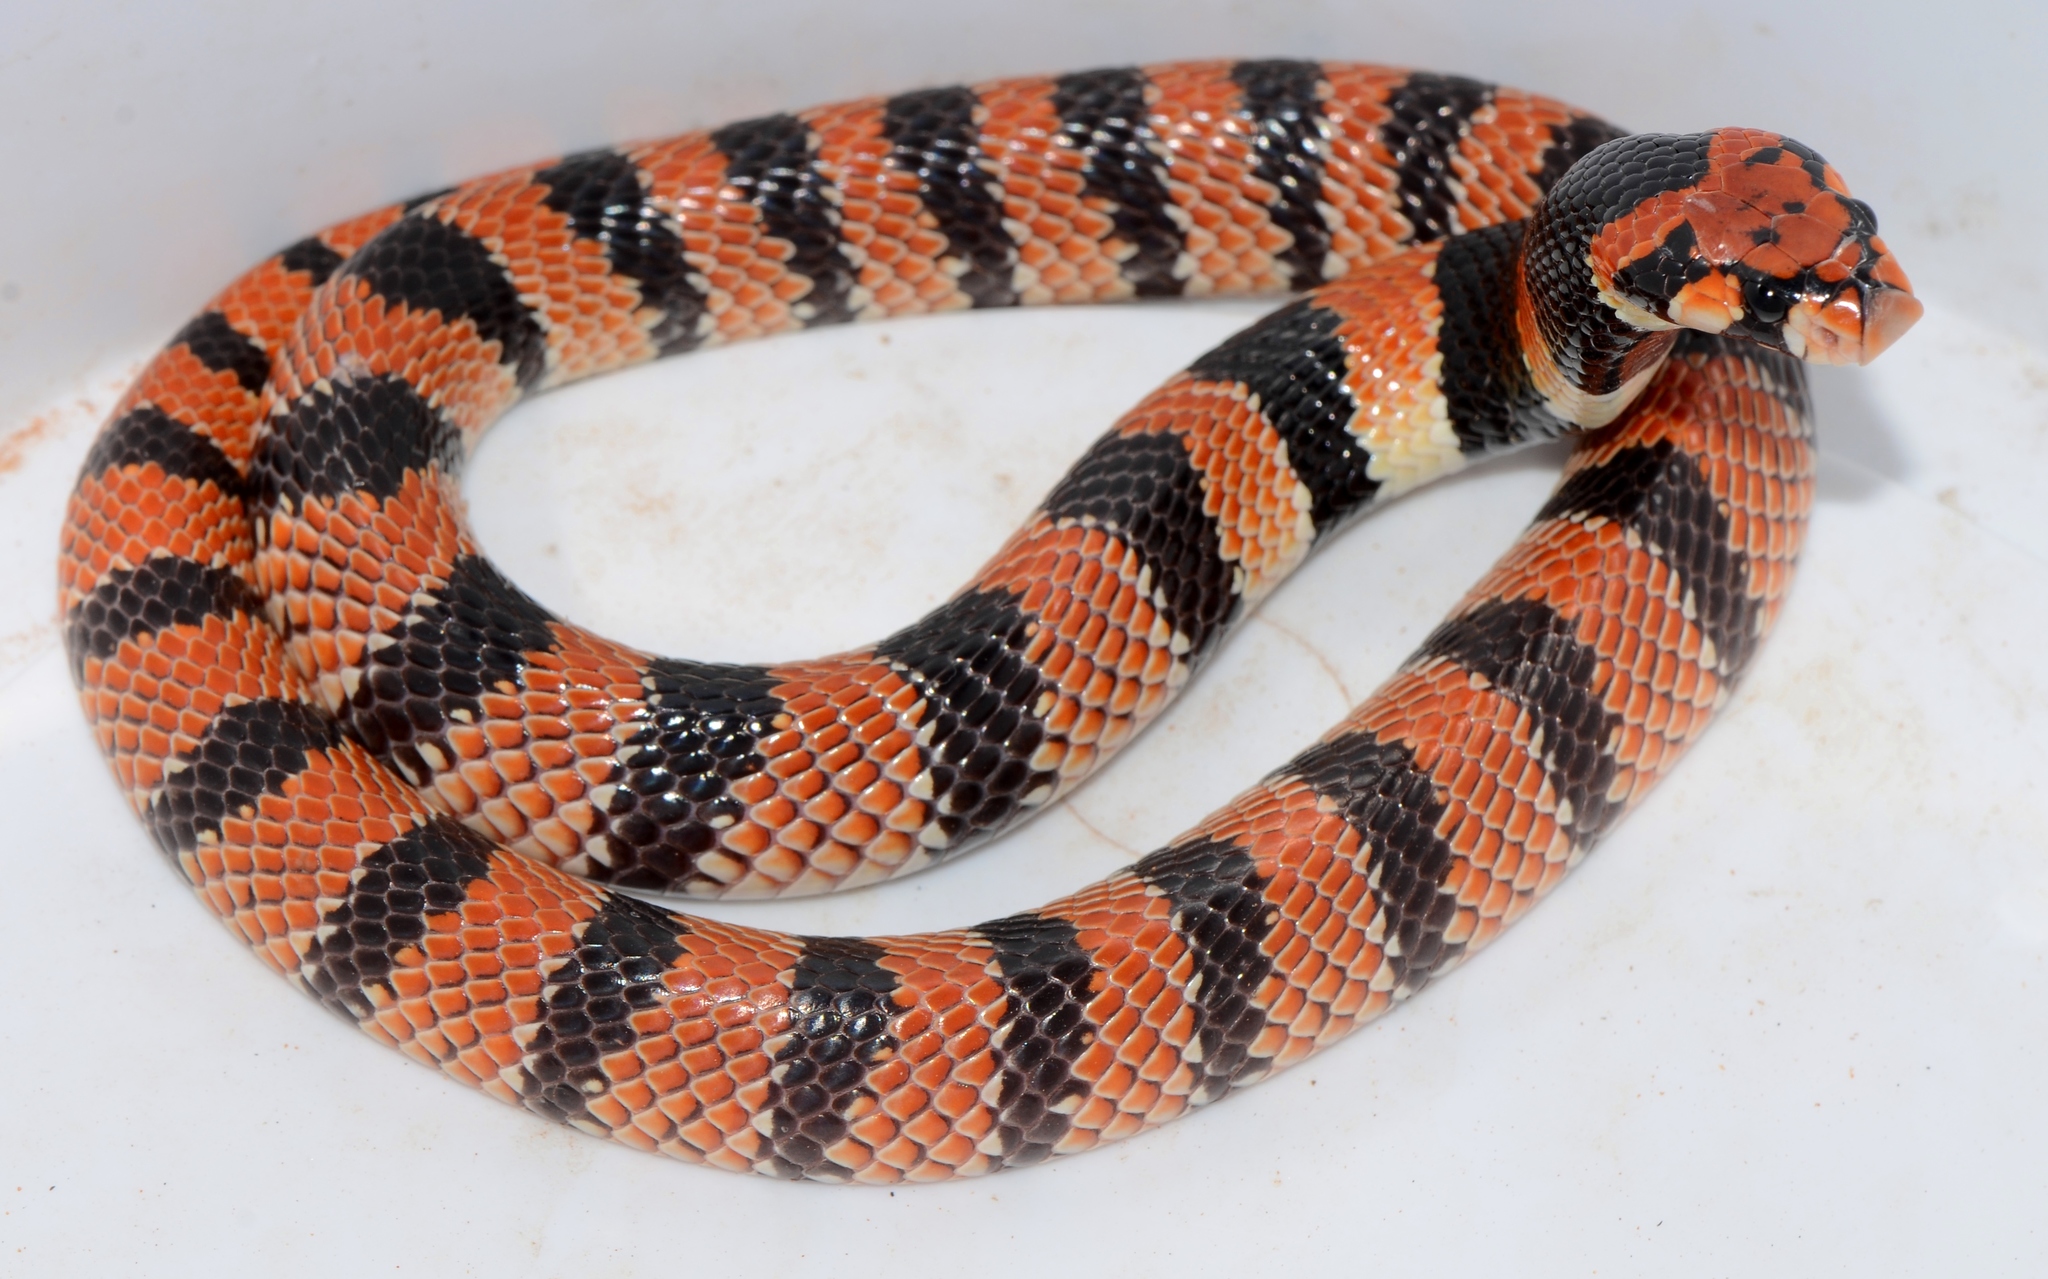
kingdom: Animalia
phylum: Chordata
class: Squamata
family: Elapidae
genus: Aspidelaps
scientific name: Aspidelaps lubricus
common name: Coral shield cobra
